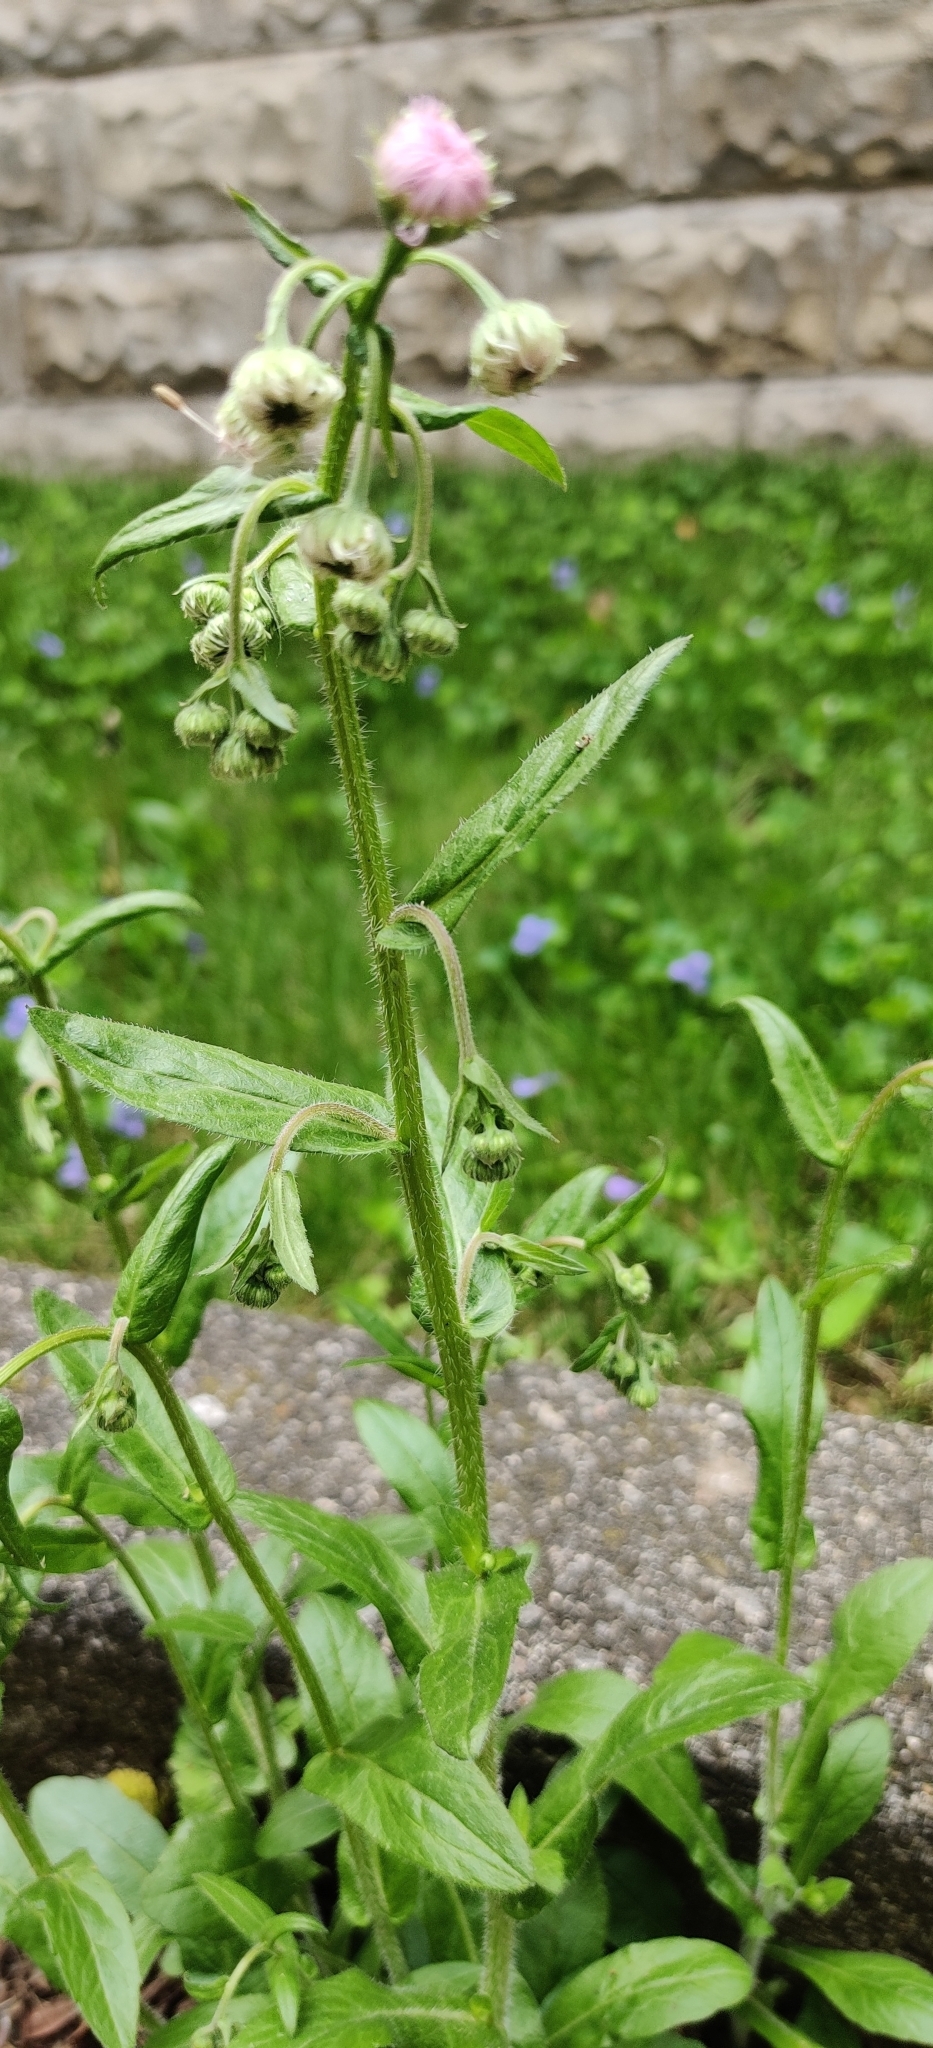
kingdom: Plantae
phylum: Tracheophyta
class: Magnoliopsida
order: Asterales
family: Asteraceae
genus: Erigeron
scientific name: Erigeron philadelphicus
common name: Robin's-plantain
